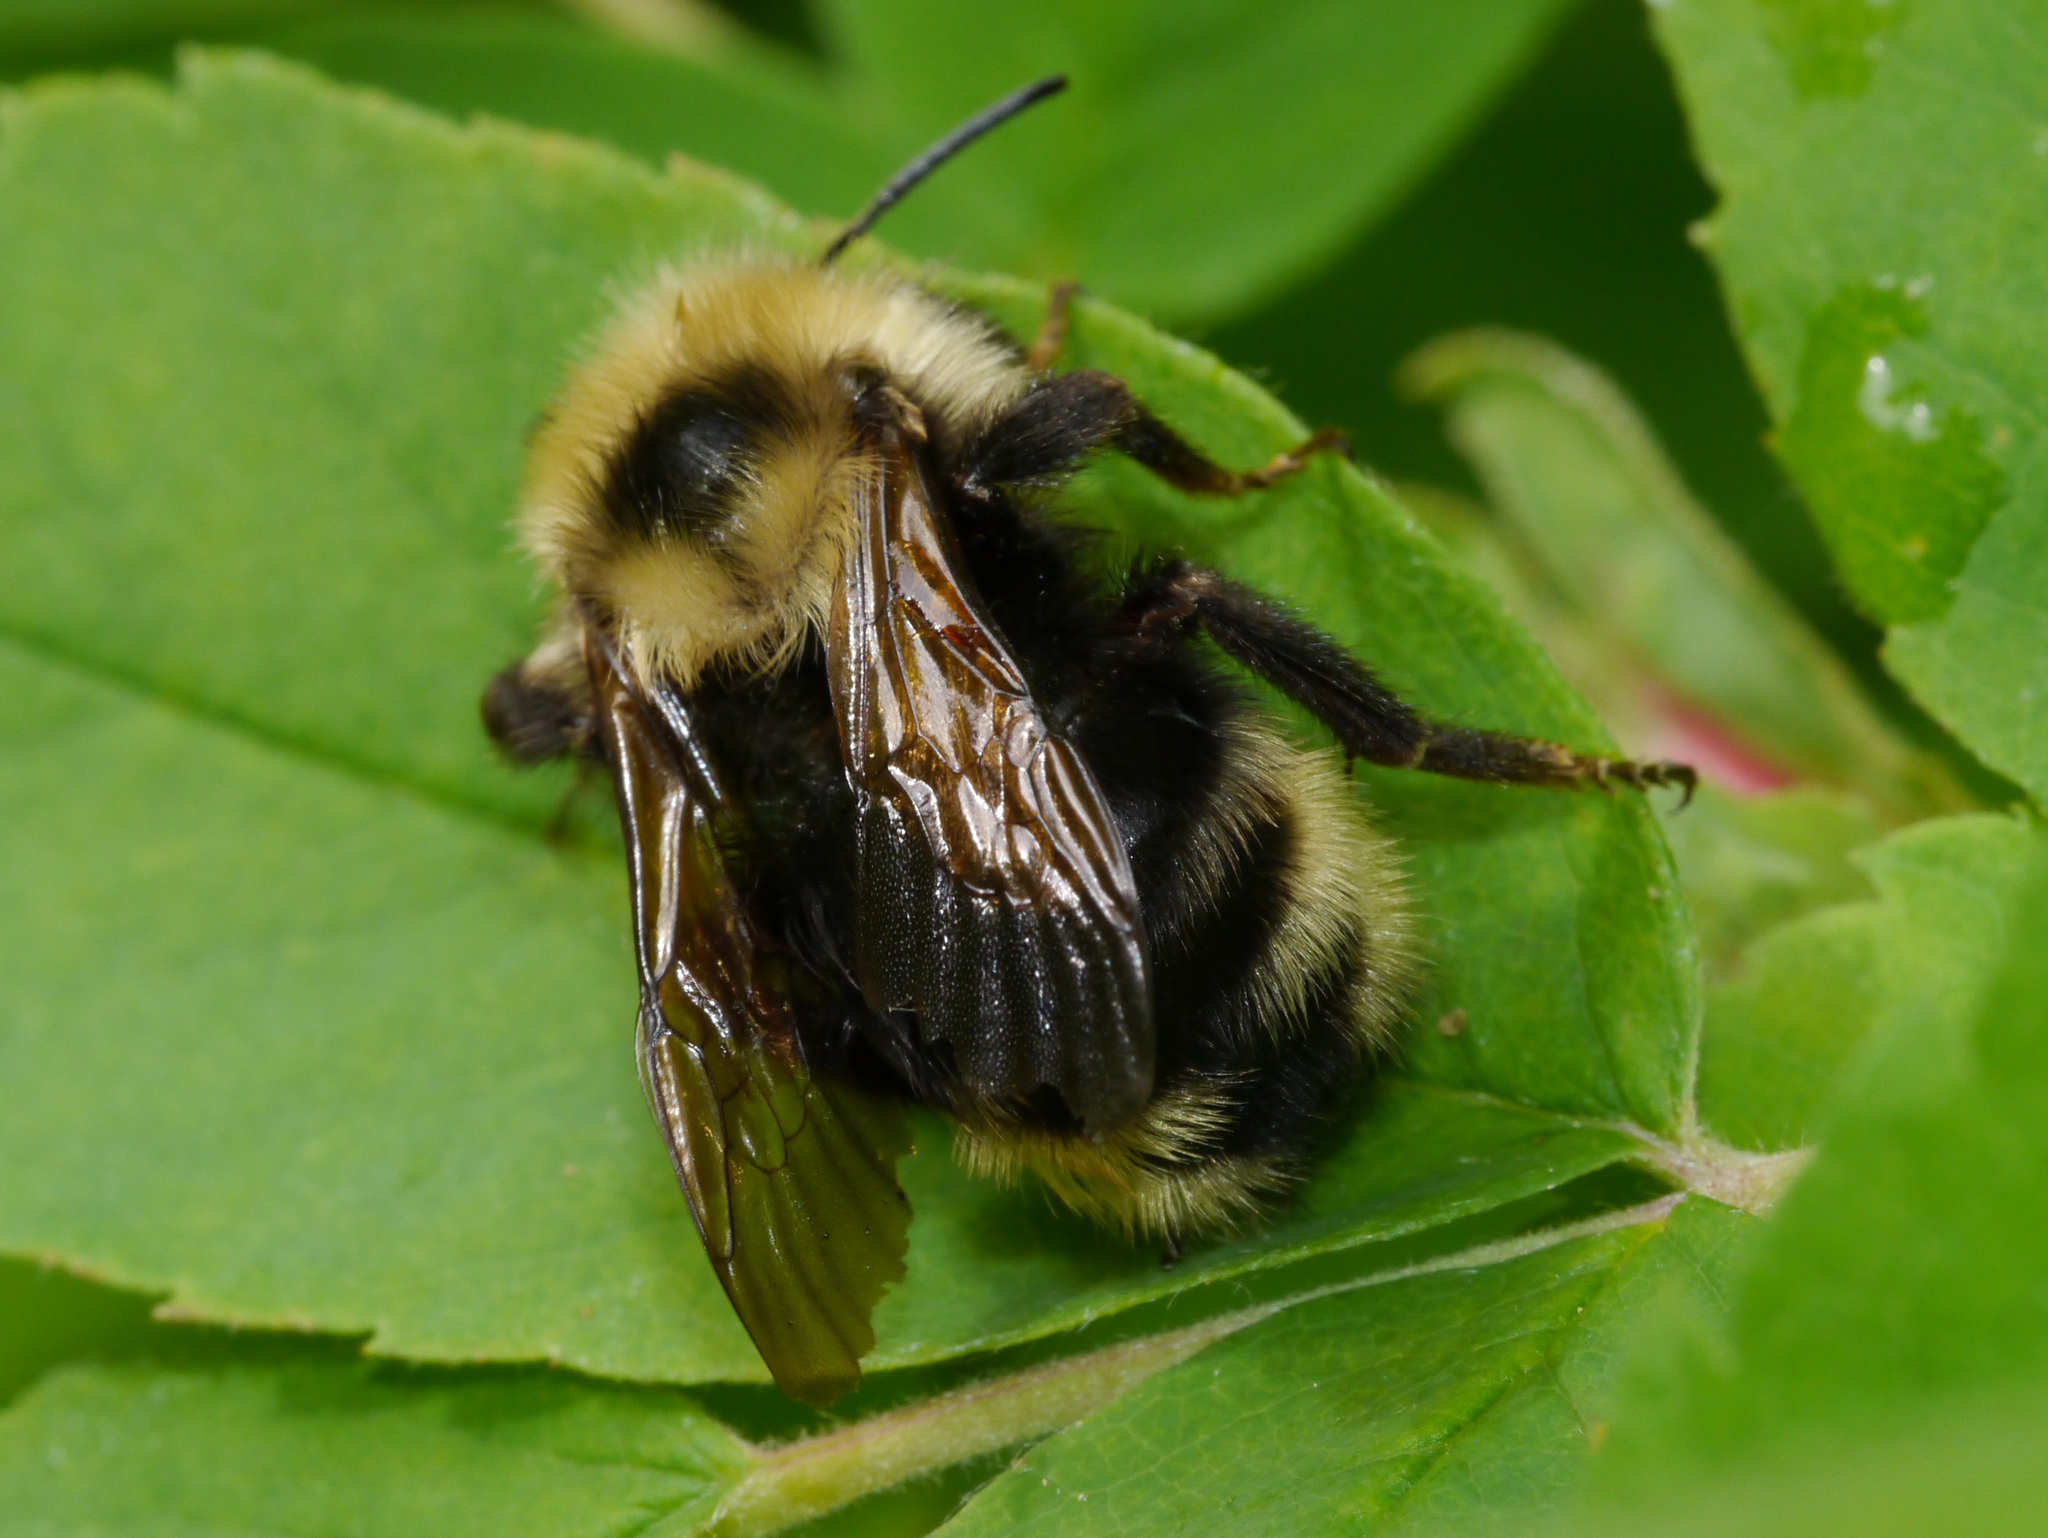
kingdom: Animalia
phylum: Arthropoda
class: Insecta
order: Hymenoptera
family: Apidae
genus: Bombus
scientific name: Bombus insularis
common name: Indiscriminate cuckoo bumble bee
